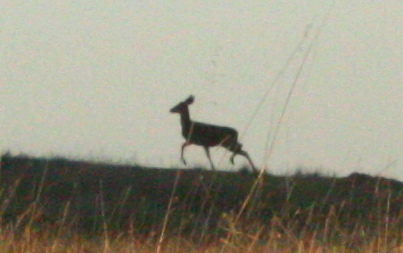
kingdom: Animalia
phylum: Chordata
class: Mammalia
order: Artiodactyla
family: Cervidae
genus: Odocoileus
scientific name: Odocoileus hemionus
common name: Mule deer
